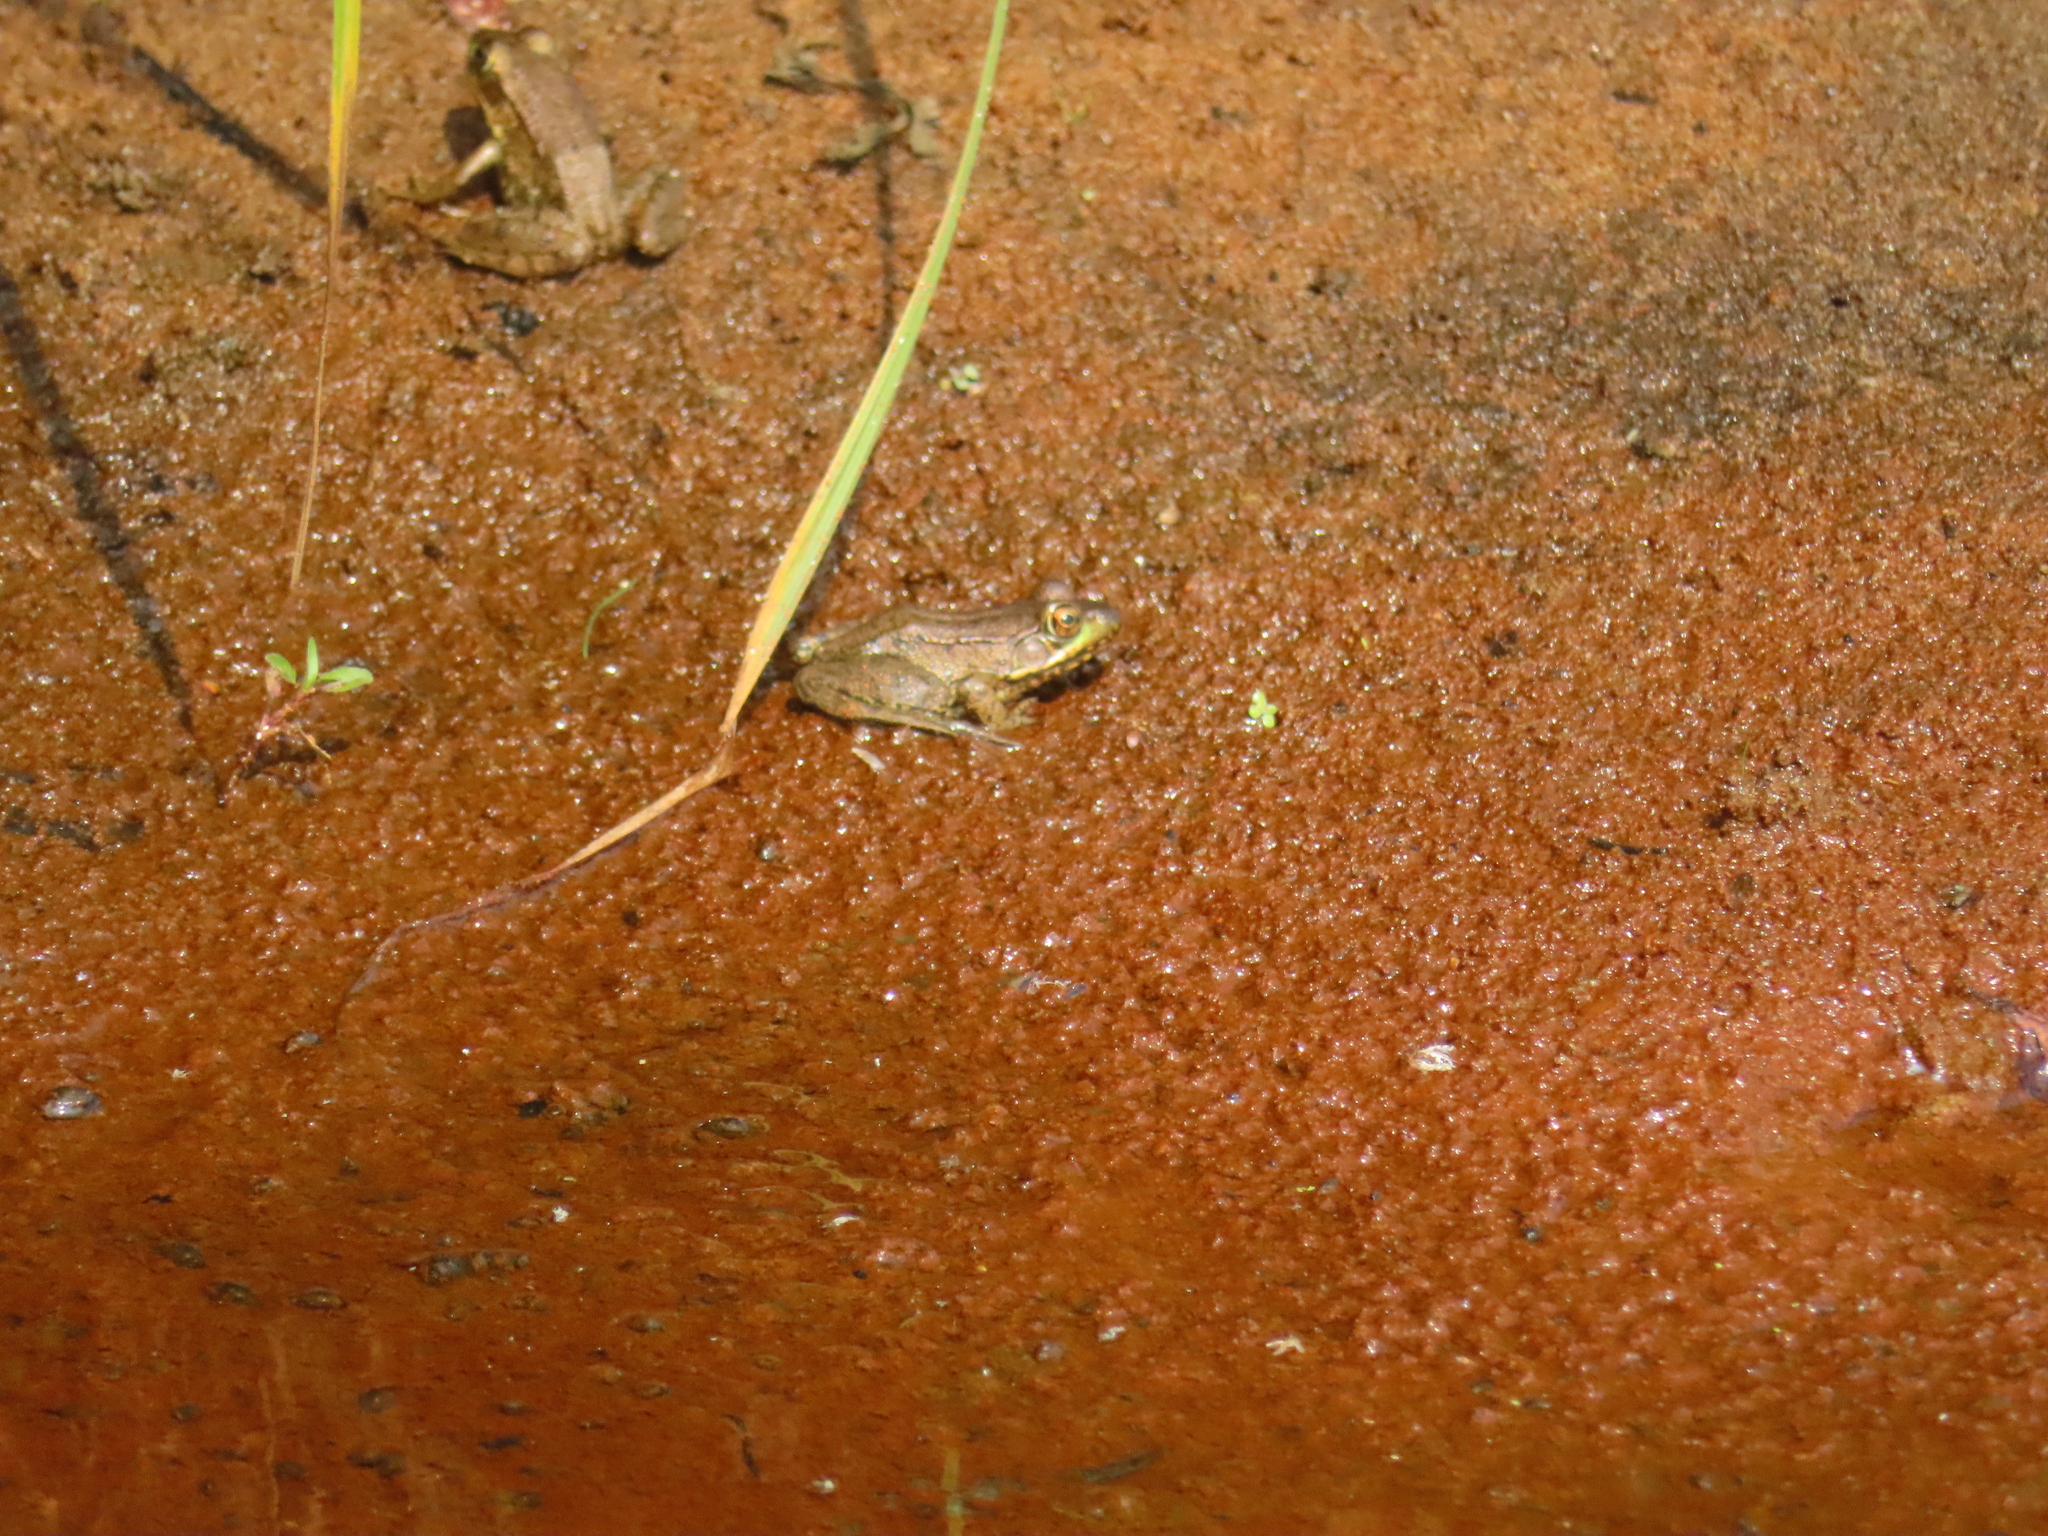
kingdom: Animalia
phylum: Chordata
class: Amphibia
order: Anura
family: Ranidae
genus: Lithobates
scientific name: Lithobates clamitans
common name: Green frog
